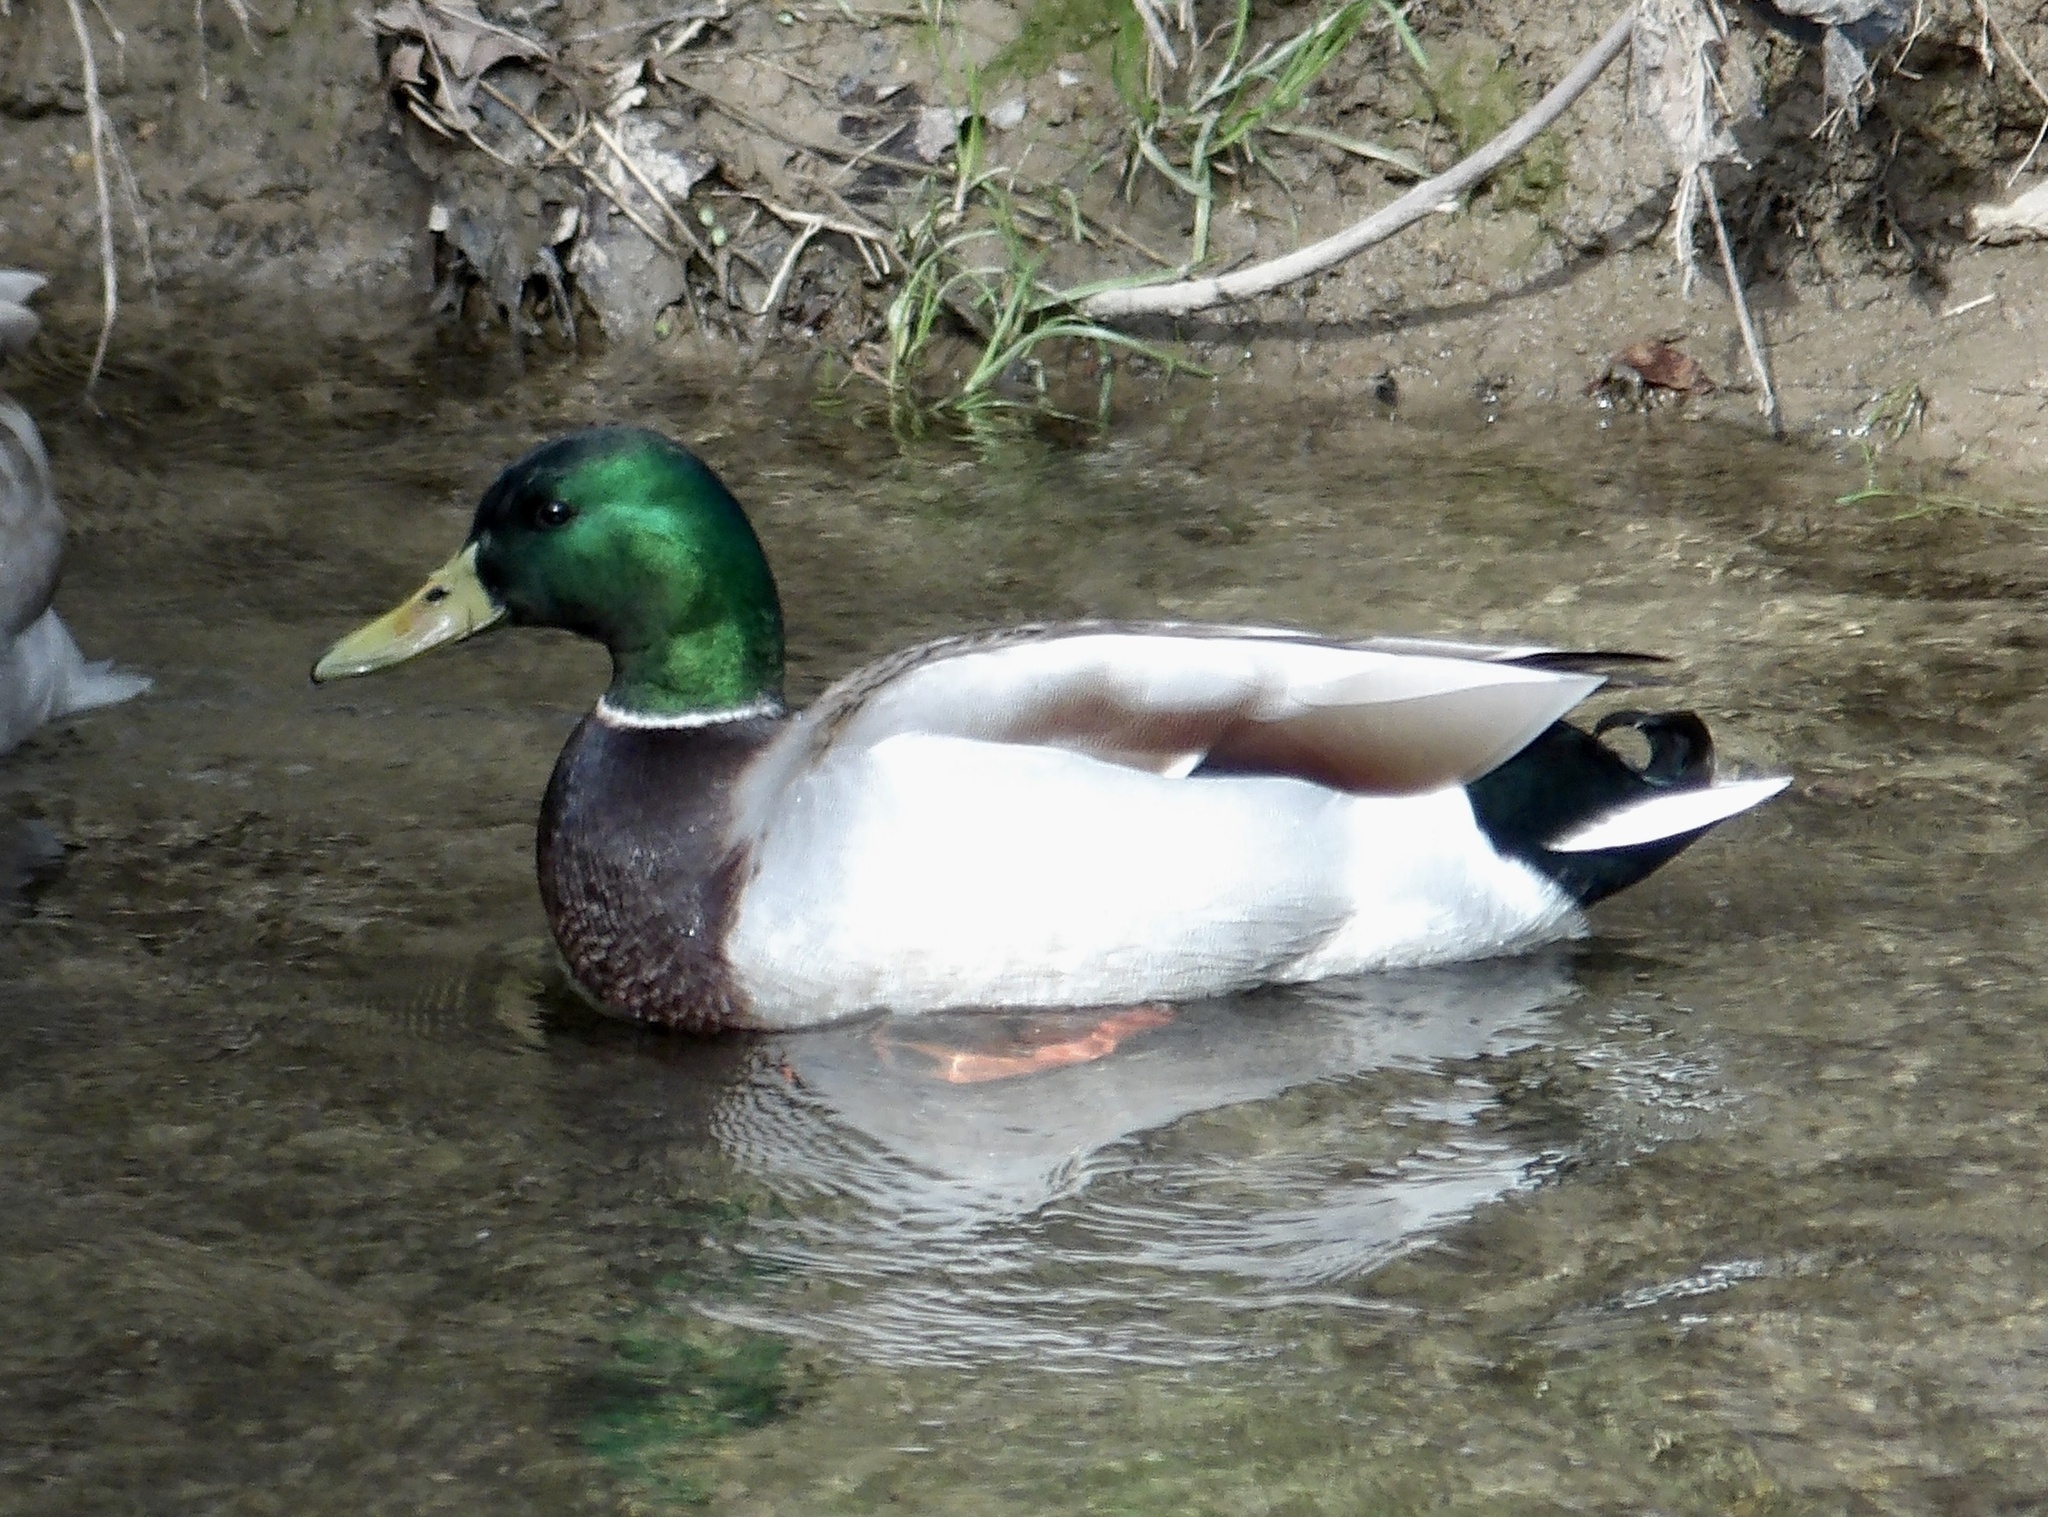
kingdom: Animalia
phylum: Chordata
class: Aves
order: Anseriformes
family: Anatidae
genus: Anas
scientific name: Anas platyrhynchos
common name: Mallard
